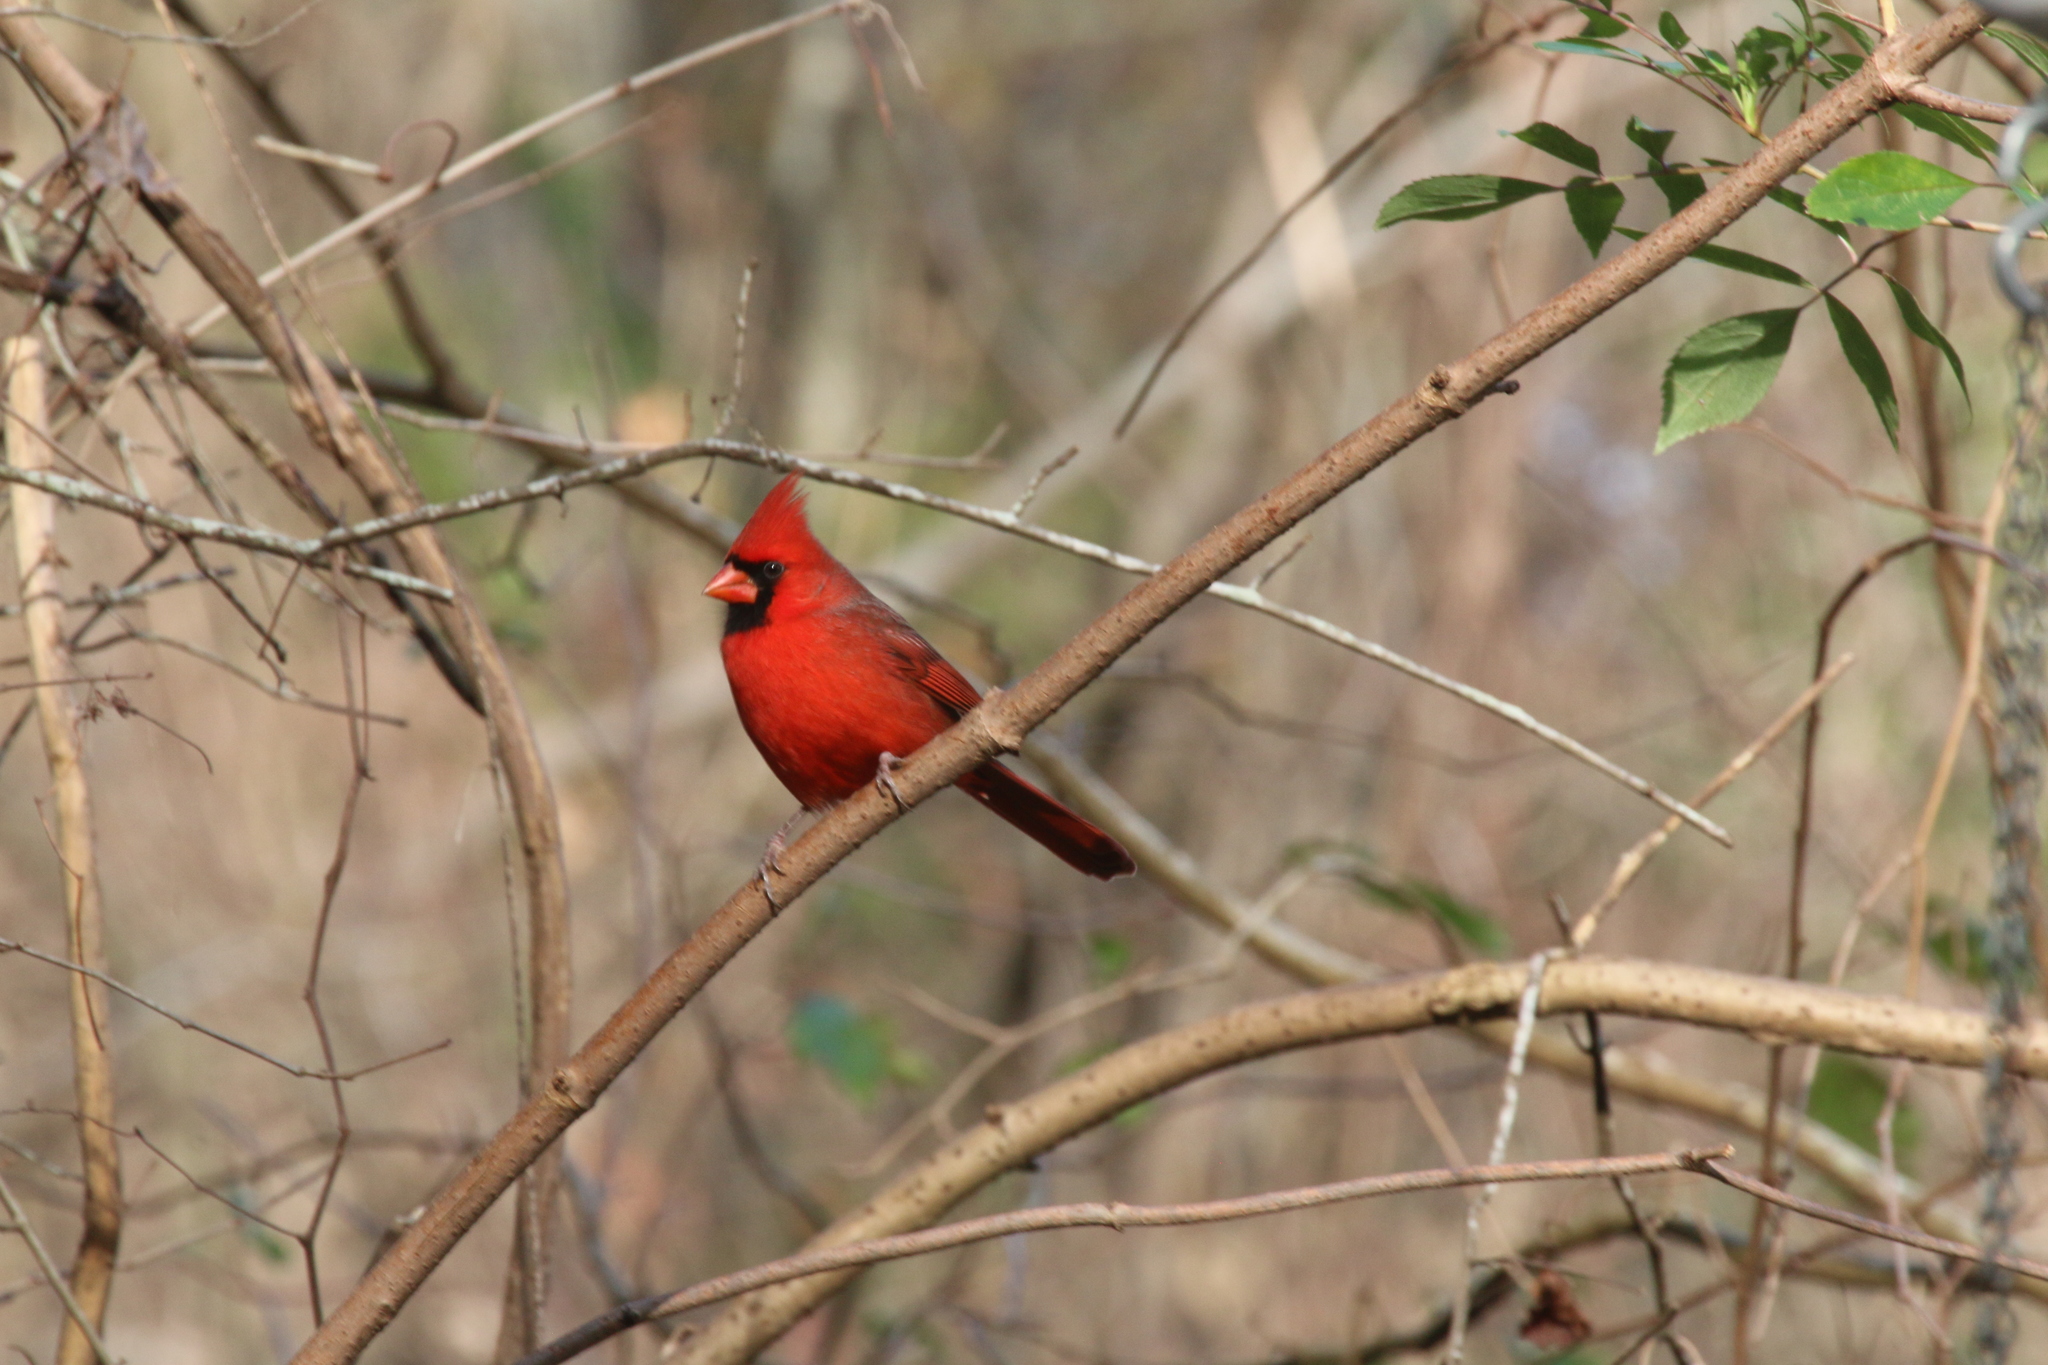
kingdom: Animalia
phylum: Chordata
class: Aves
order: Passeriformes
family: Cardinalidae
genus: Cardinalis
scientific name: Cardinalis cardinalis
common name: Northern cardinal
